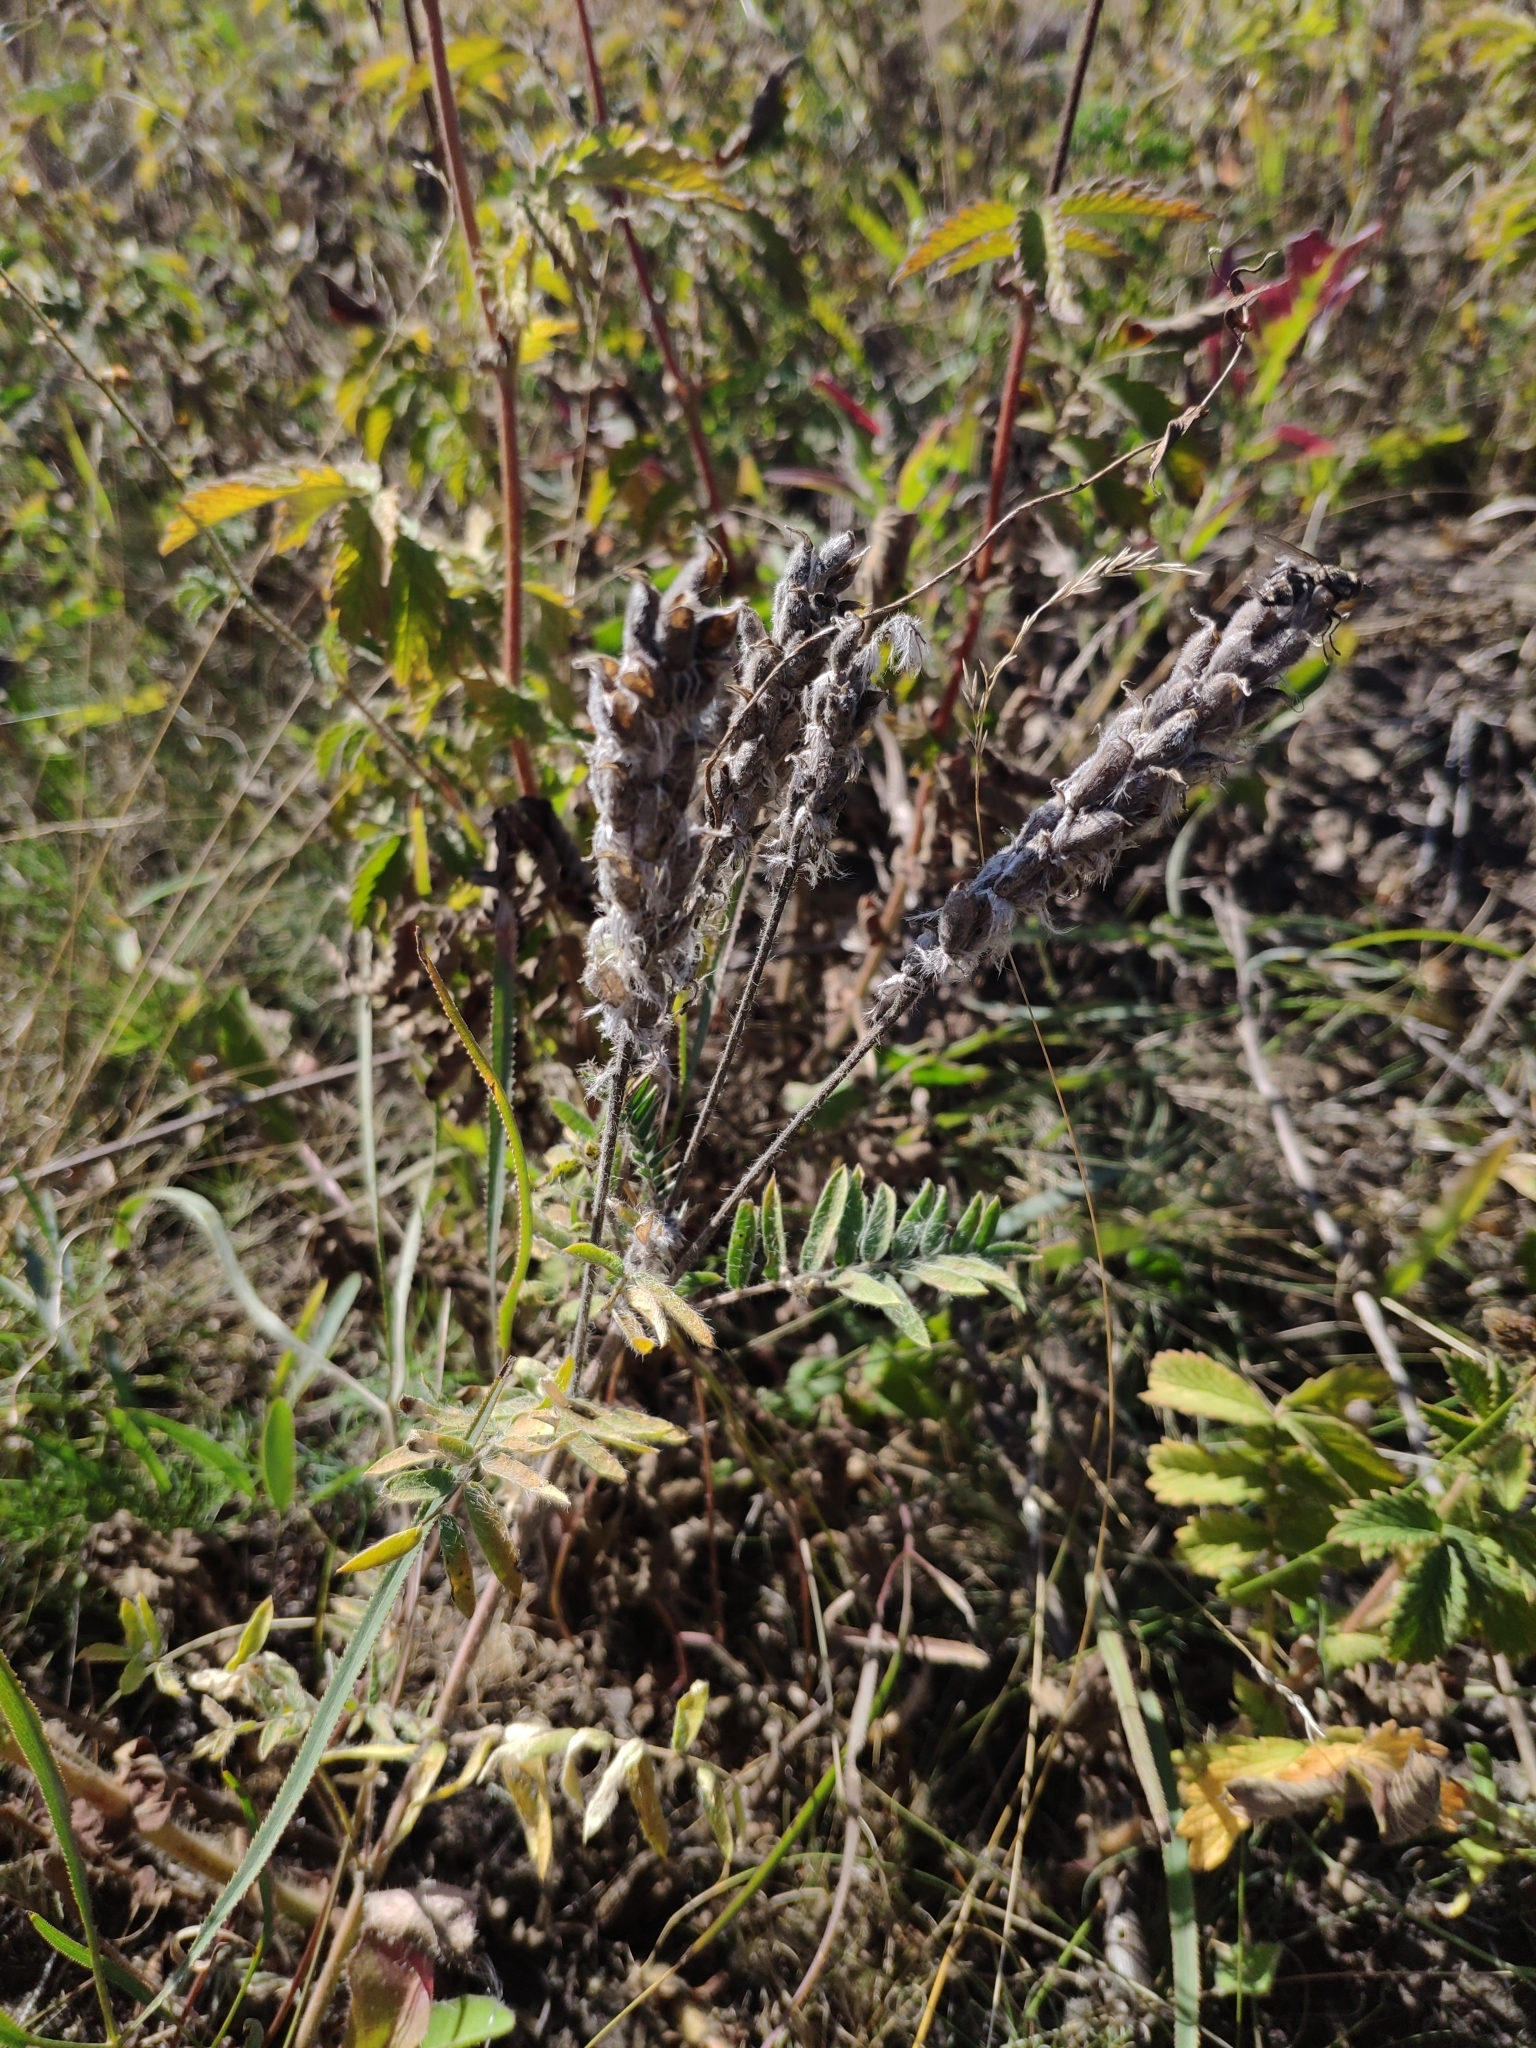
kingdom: Plantae
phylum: Tracheophyta
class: Magnoliopsida
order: Fabales
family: Fabaceae
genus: Oxytropis
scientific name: Oxytropis pilosa
